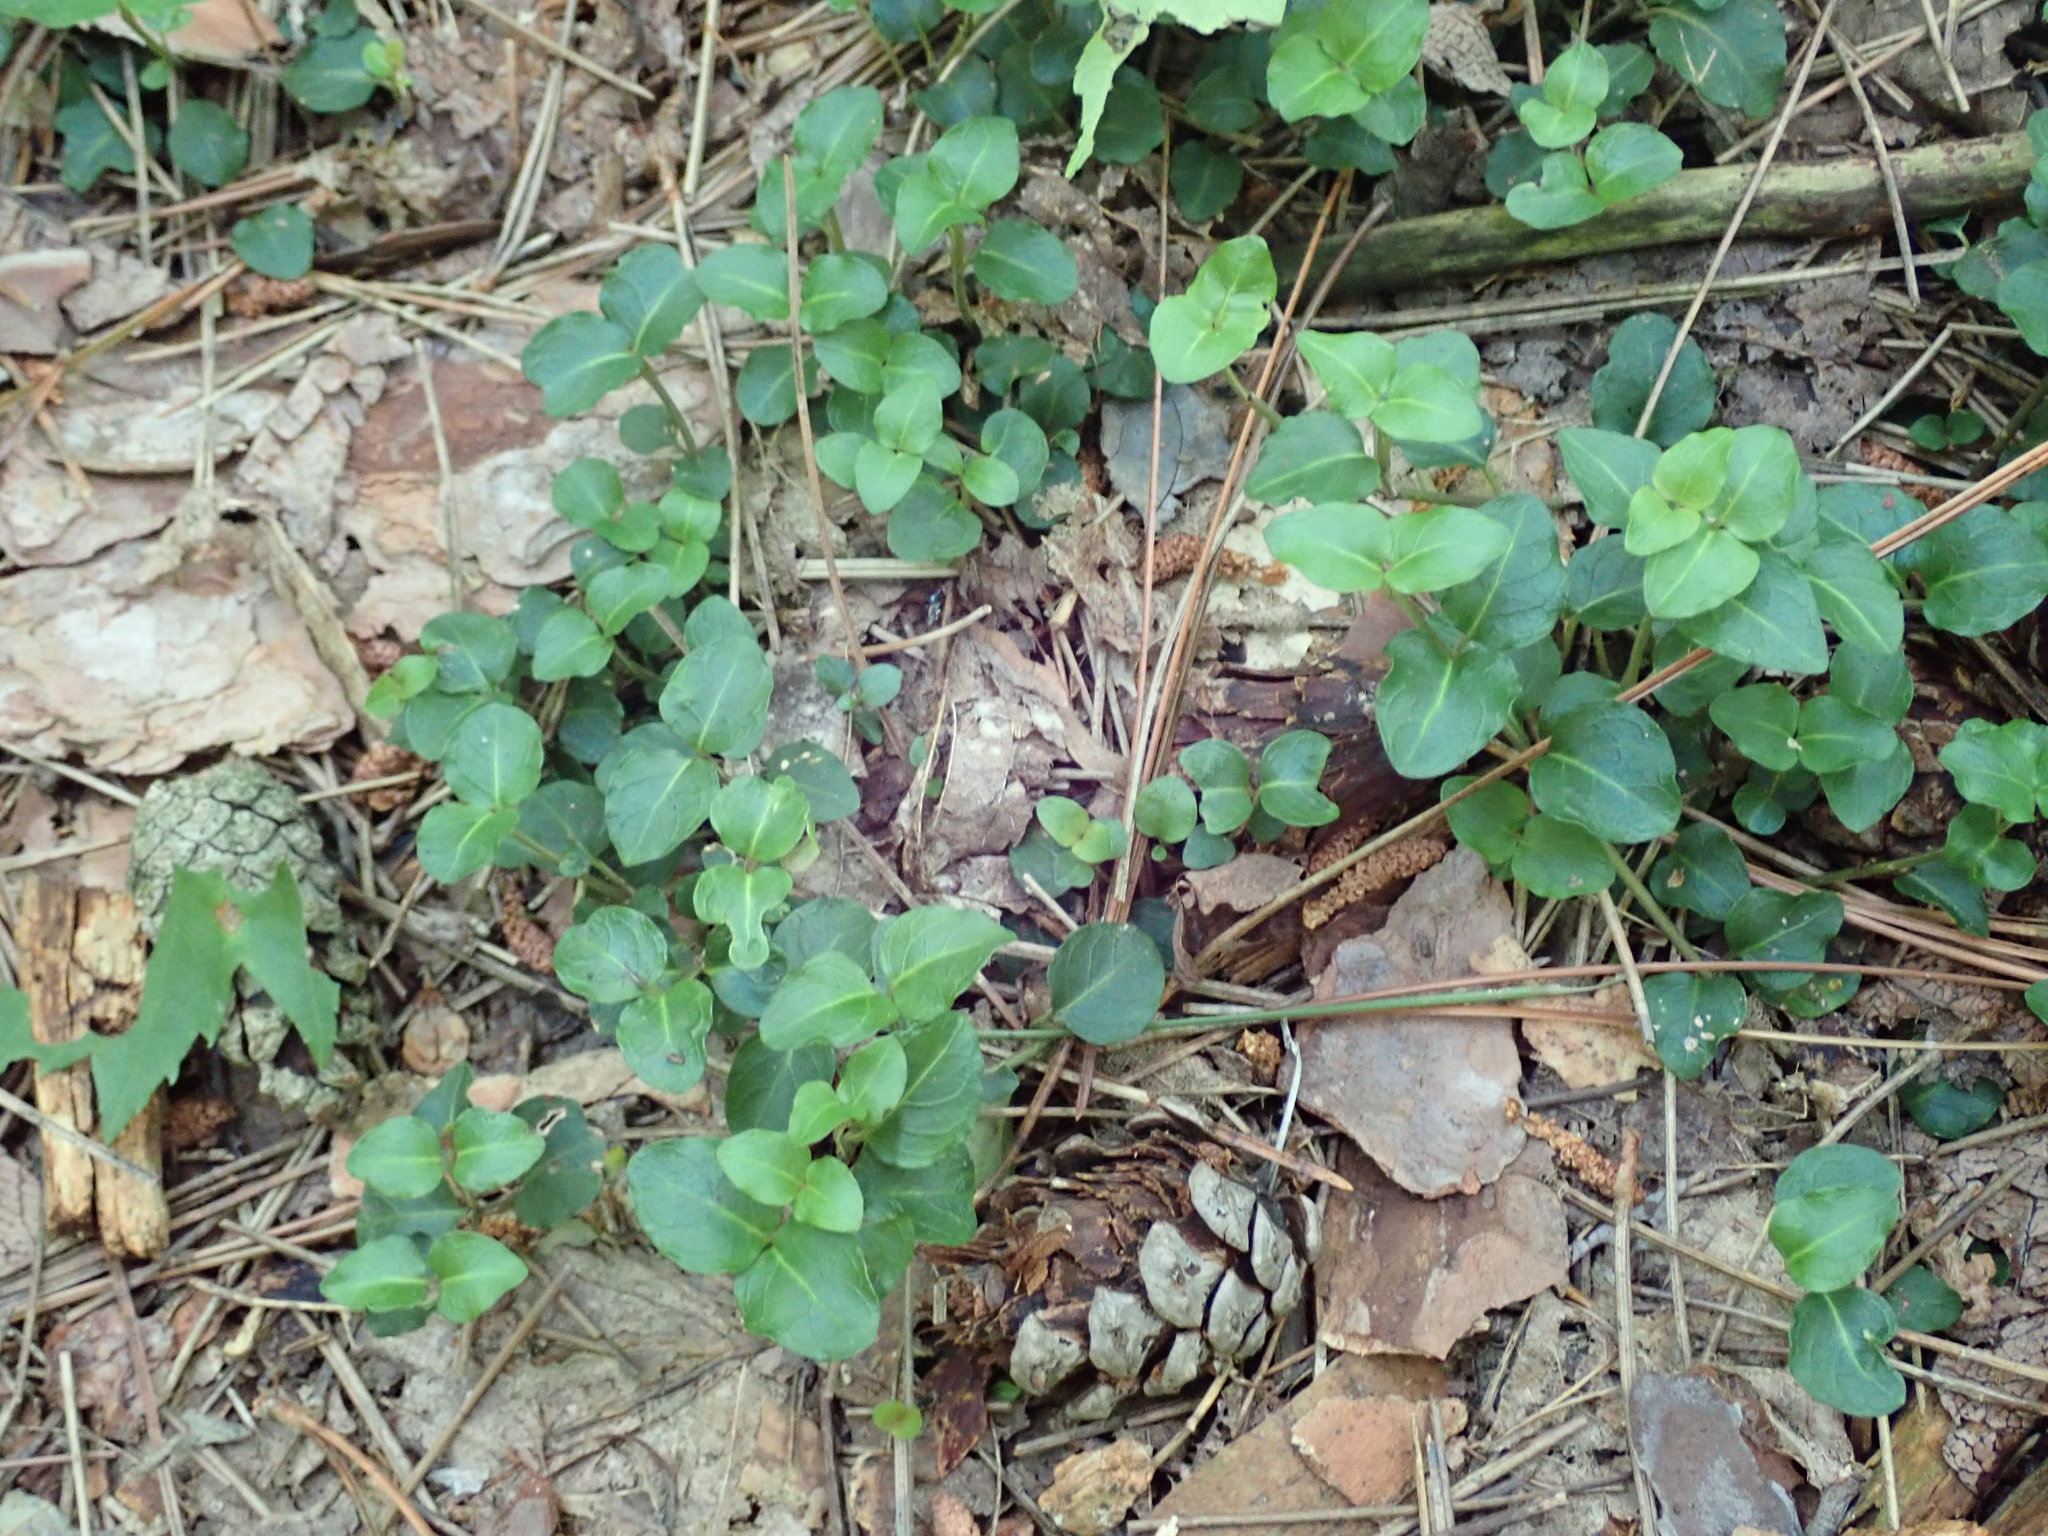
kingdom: Plantae
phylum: Tracheophyta
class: Magnoliopsida
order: Gentianales
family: Rubiaceae
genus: Mitchella
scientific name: Mitchella repens
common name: Partridge-berry
